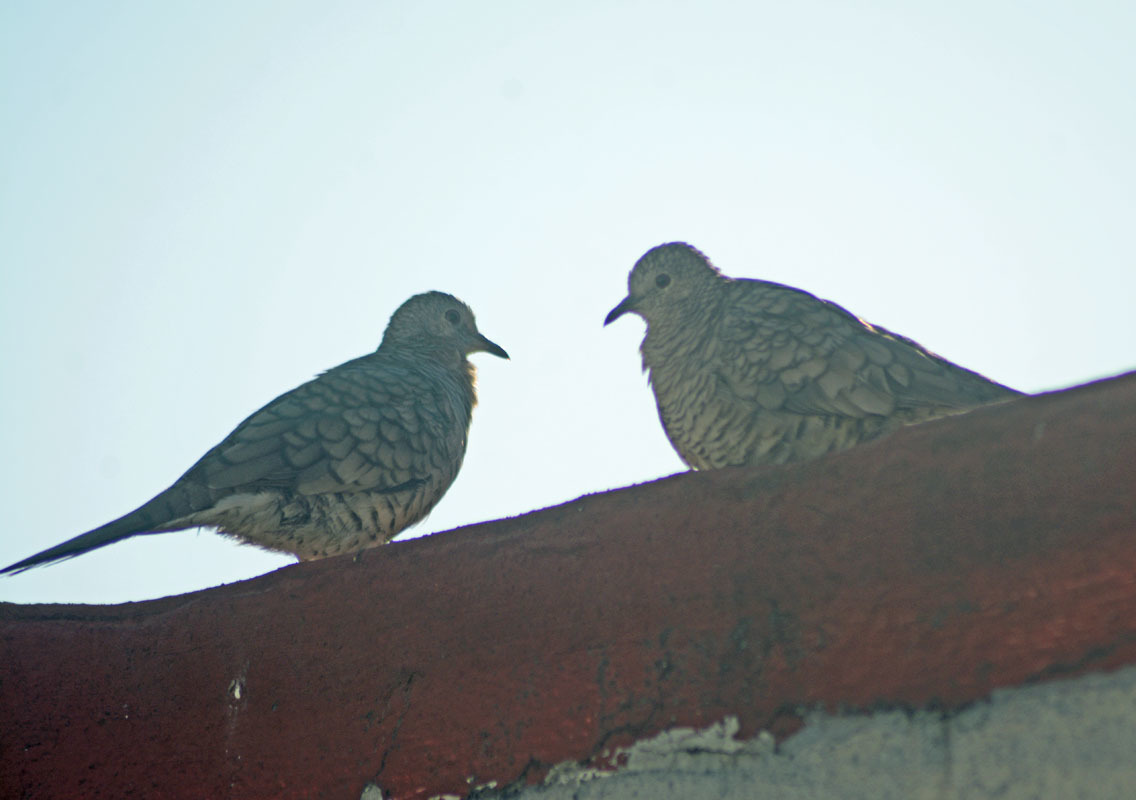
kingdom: Animalia
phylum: Chordata
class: Aves
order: Columbiformes
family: Columbidae
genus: Columbina
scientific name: Columbina inca
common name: Inca dove
